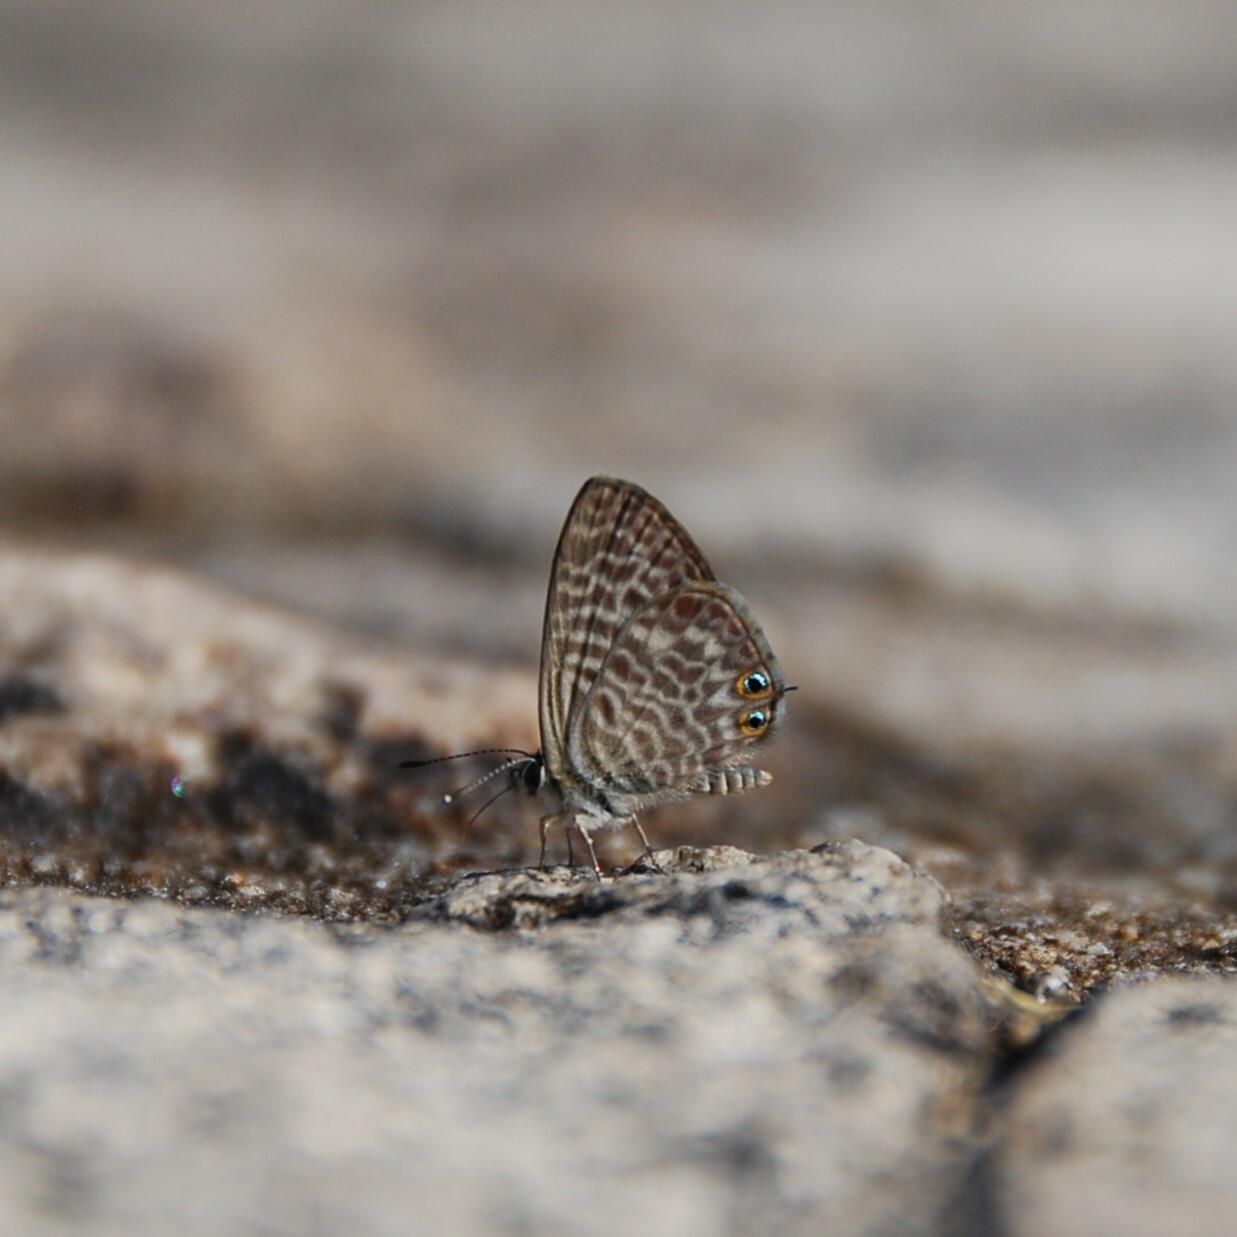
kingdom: Animalia
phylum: Arthropoda
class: Insecta
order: Lepidoptera
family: Lycaenidae
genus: Leptotes
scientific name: Leptotes pirithous
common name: Lang's short-tailed blue
